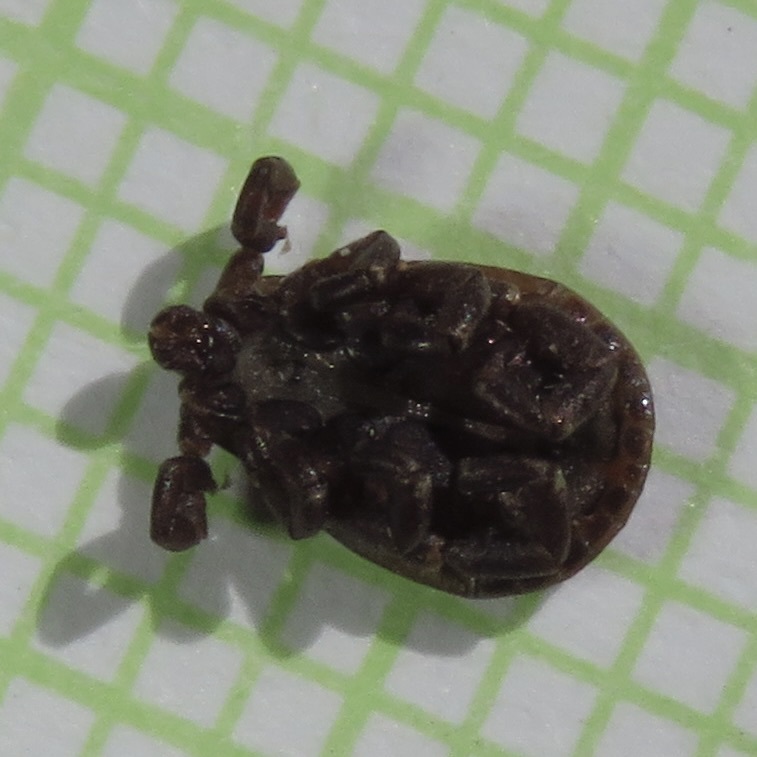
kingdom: Animalia
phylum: Arthropoda
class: Arachnida
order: Ixodida
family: Ixodidae
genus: Dermacentor
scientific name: Dermacentor andersoni
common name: Rocky mountain wood tick
